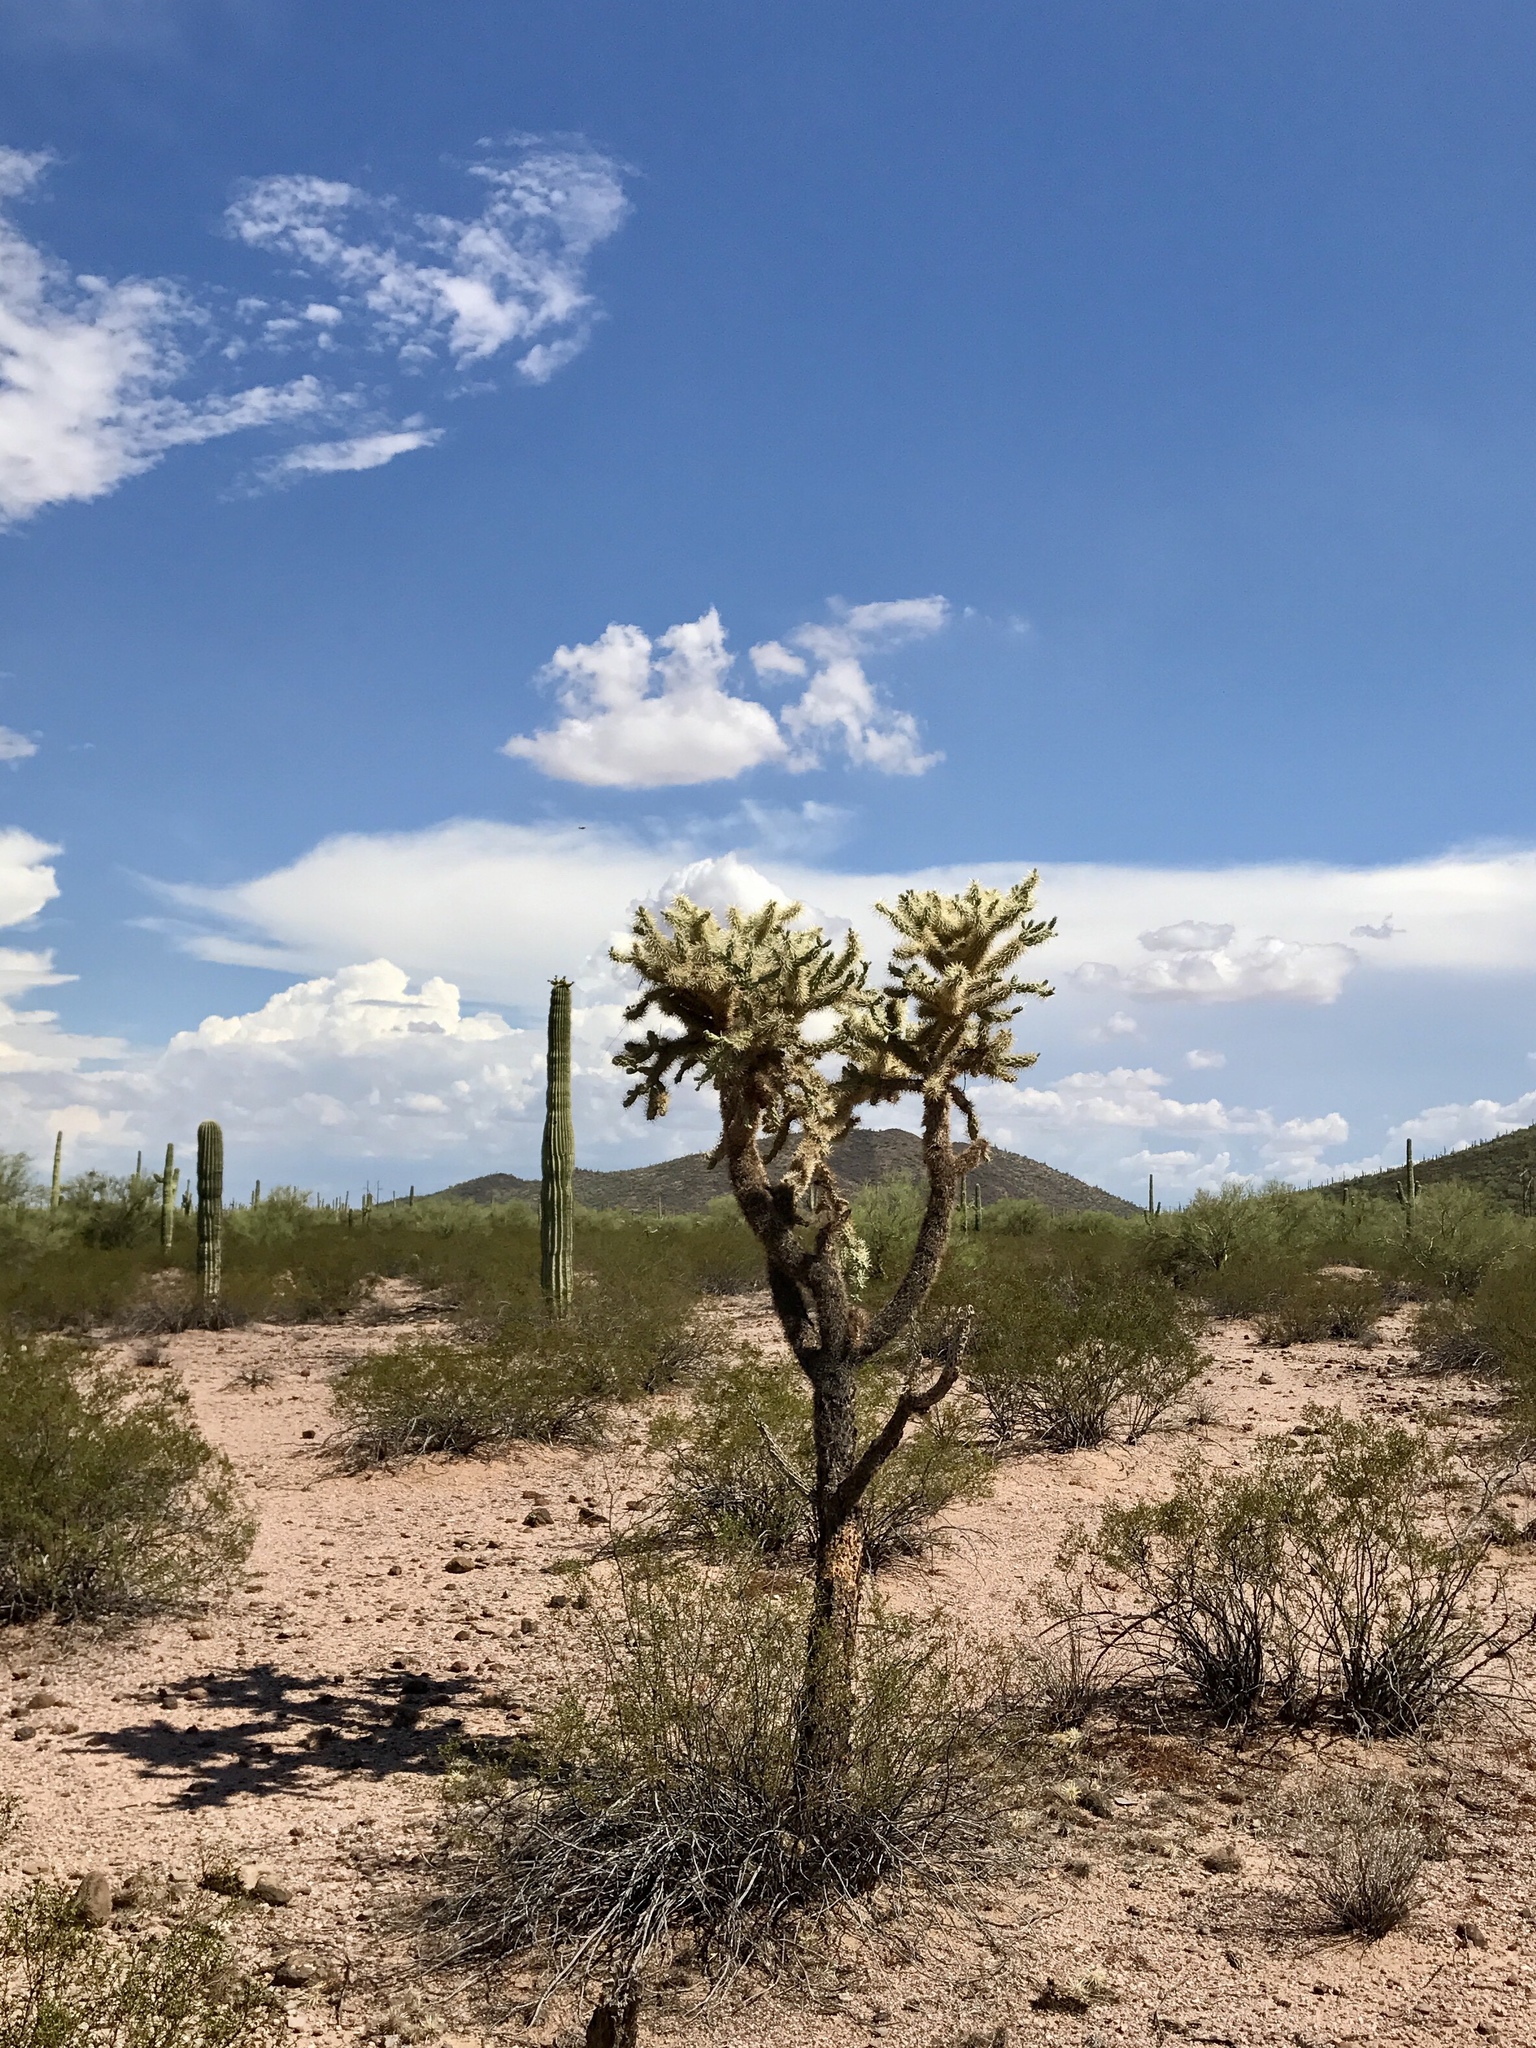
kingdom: Plantae
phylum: Tracheophyta
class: Magnoliopsida
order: Caryophyllales
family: Cactaceae
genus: Cylindropuntia
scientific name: Cylindropuntia fulgida
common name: Jumping cholla
